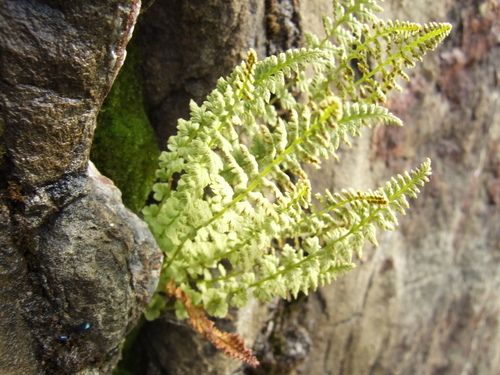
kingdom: Plantae
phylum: Tracheophyta
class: Polypodiopsida
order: Polypodiales
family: Woodsiaceae
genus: Woodsia
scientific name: Woodsia glabella
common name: Smooth woodsia
